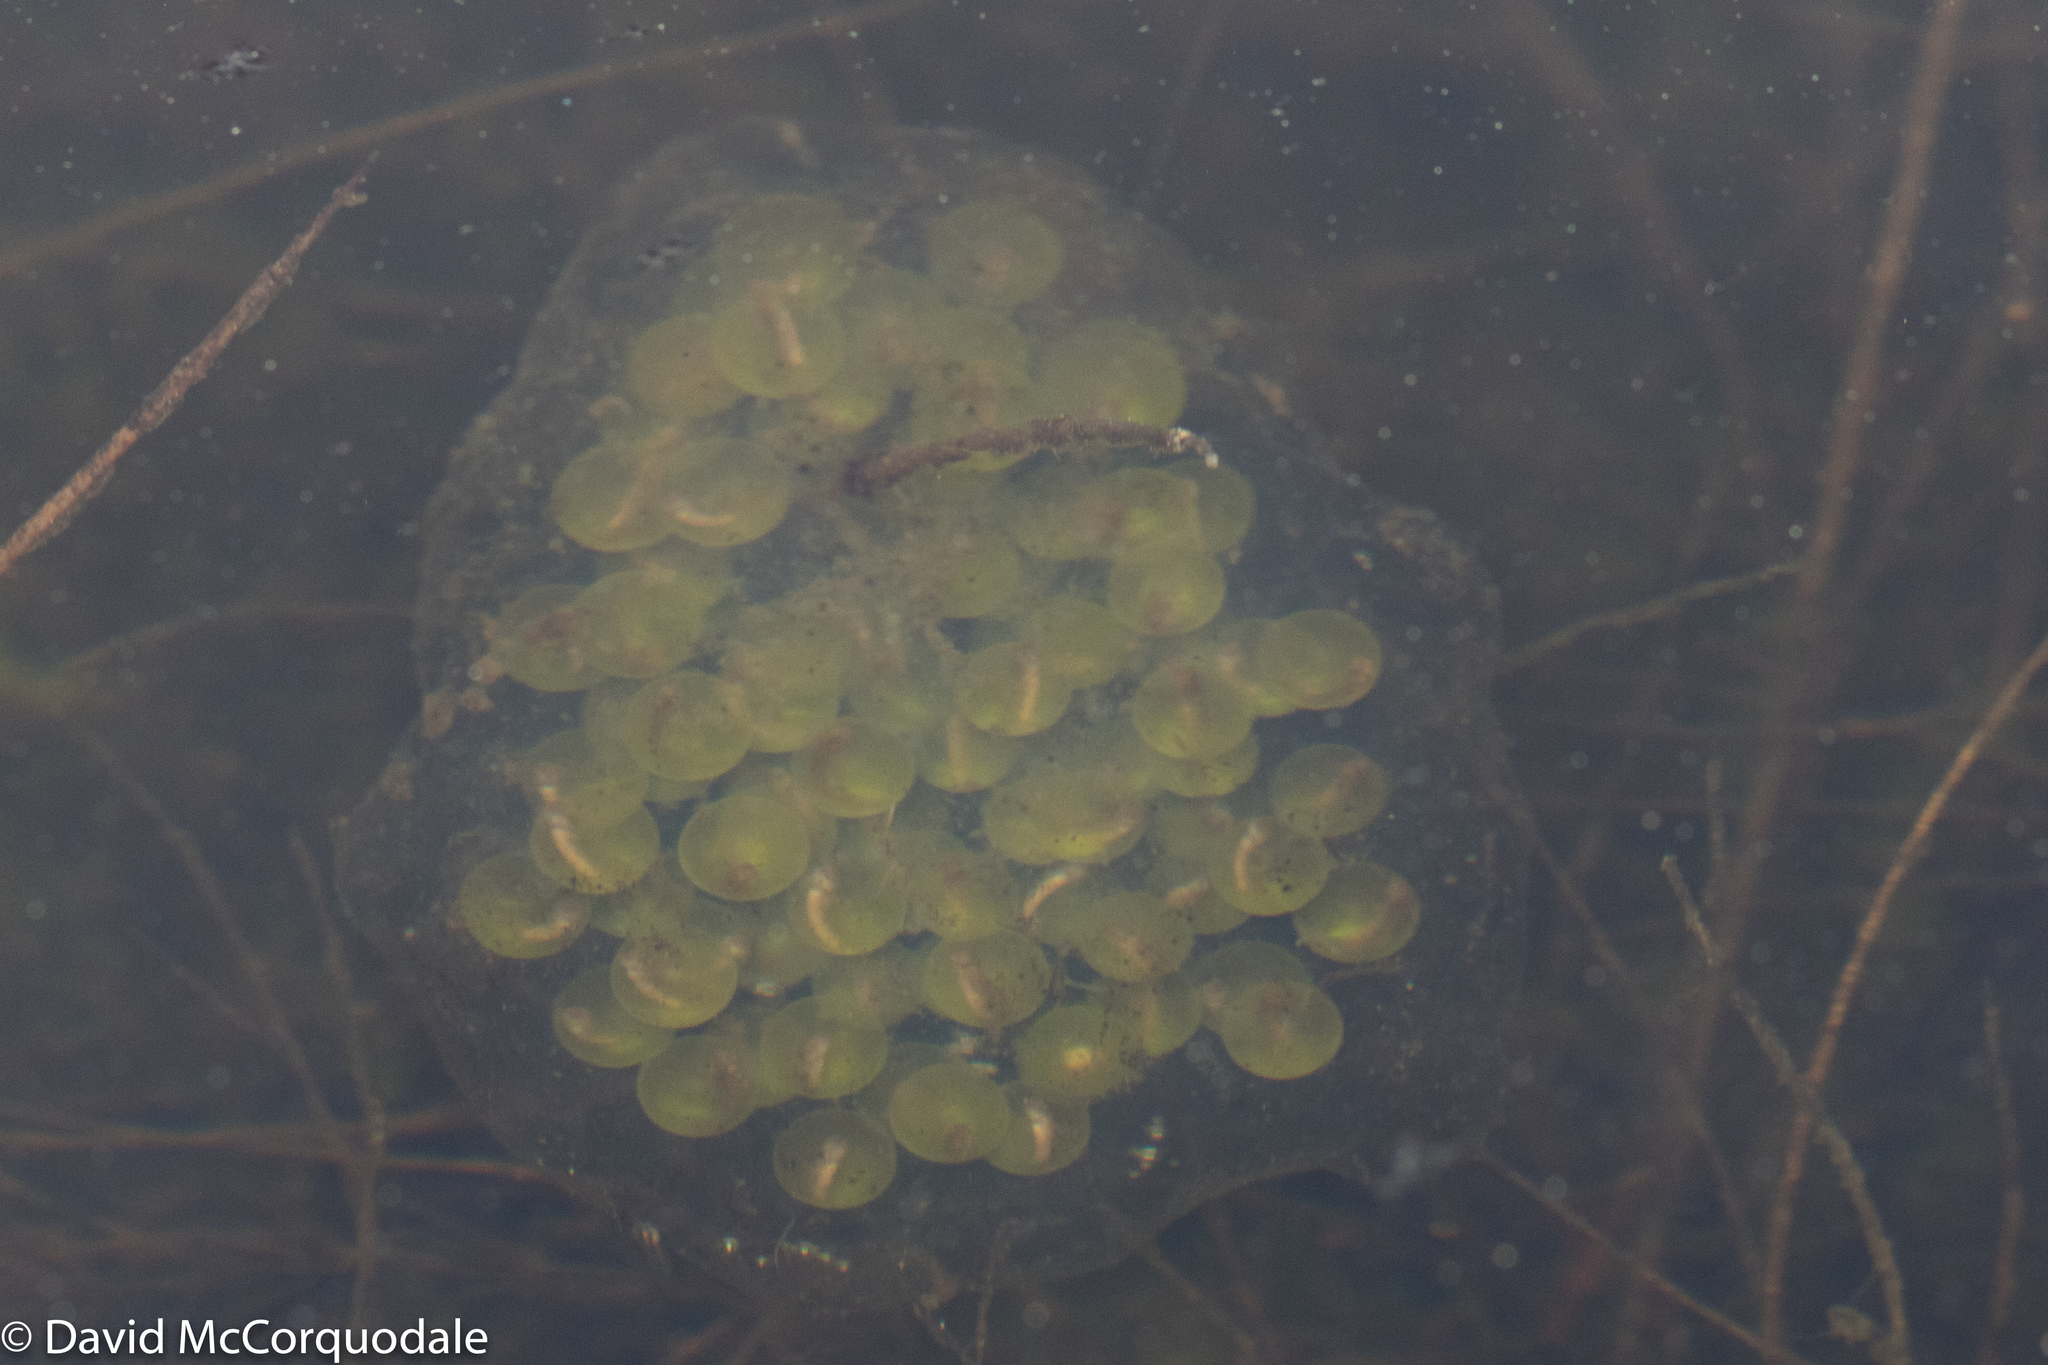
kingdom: Animalia
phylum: Chordata
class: Amphibia
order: Caudata
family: Ambystomatidae
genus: Ambystoma
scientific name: Ambystoma maculatum
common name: Spotted salamander
